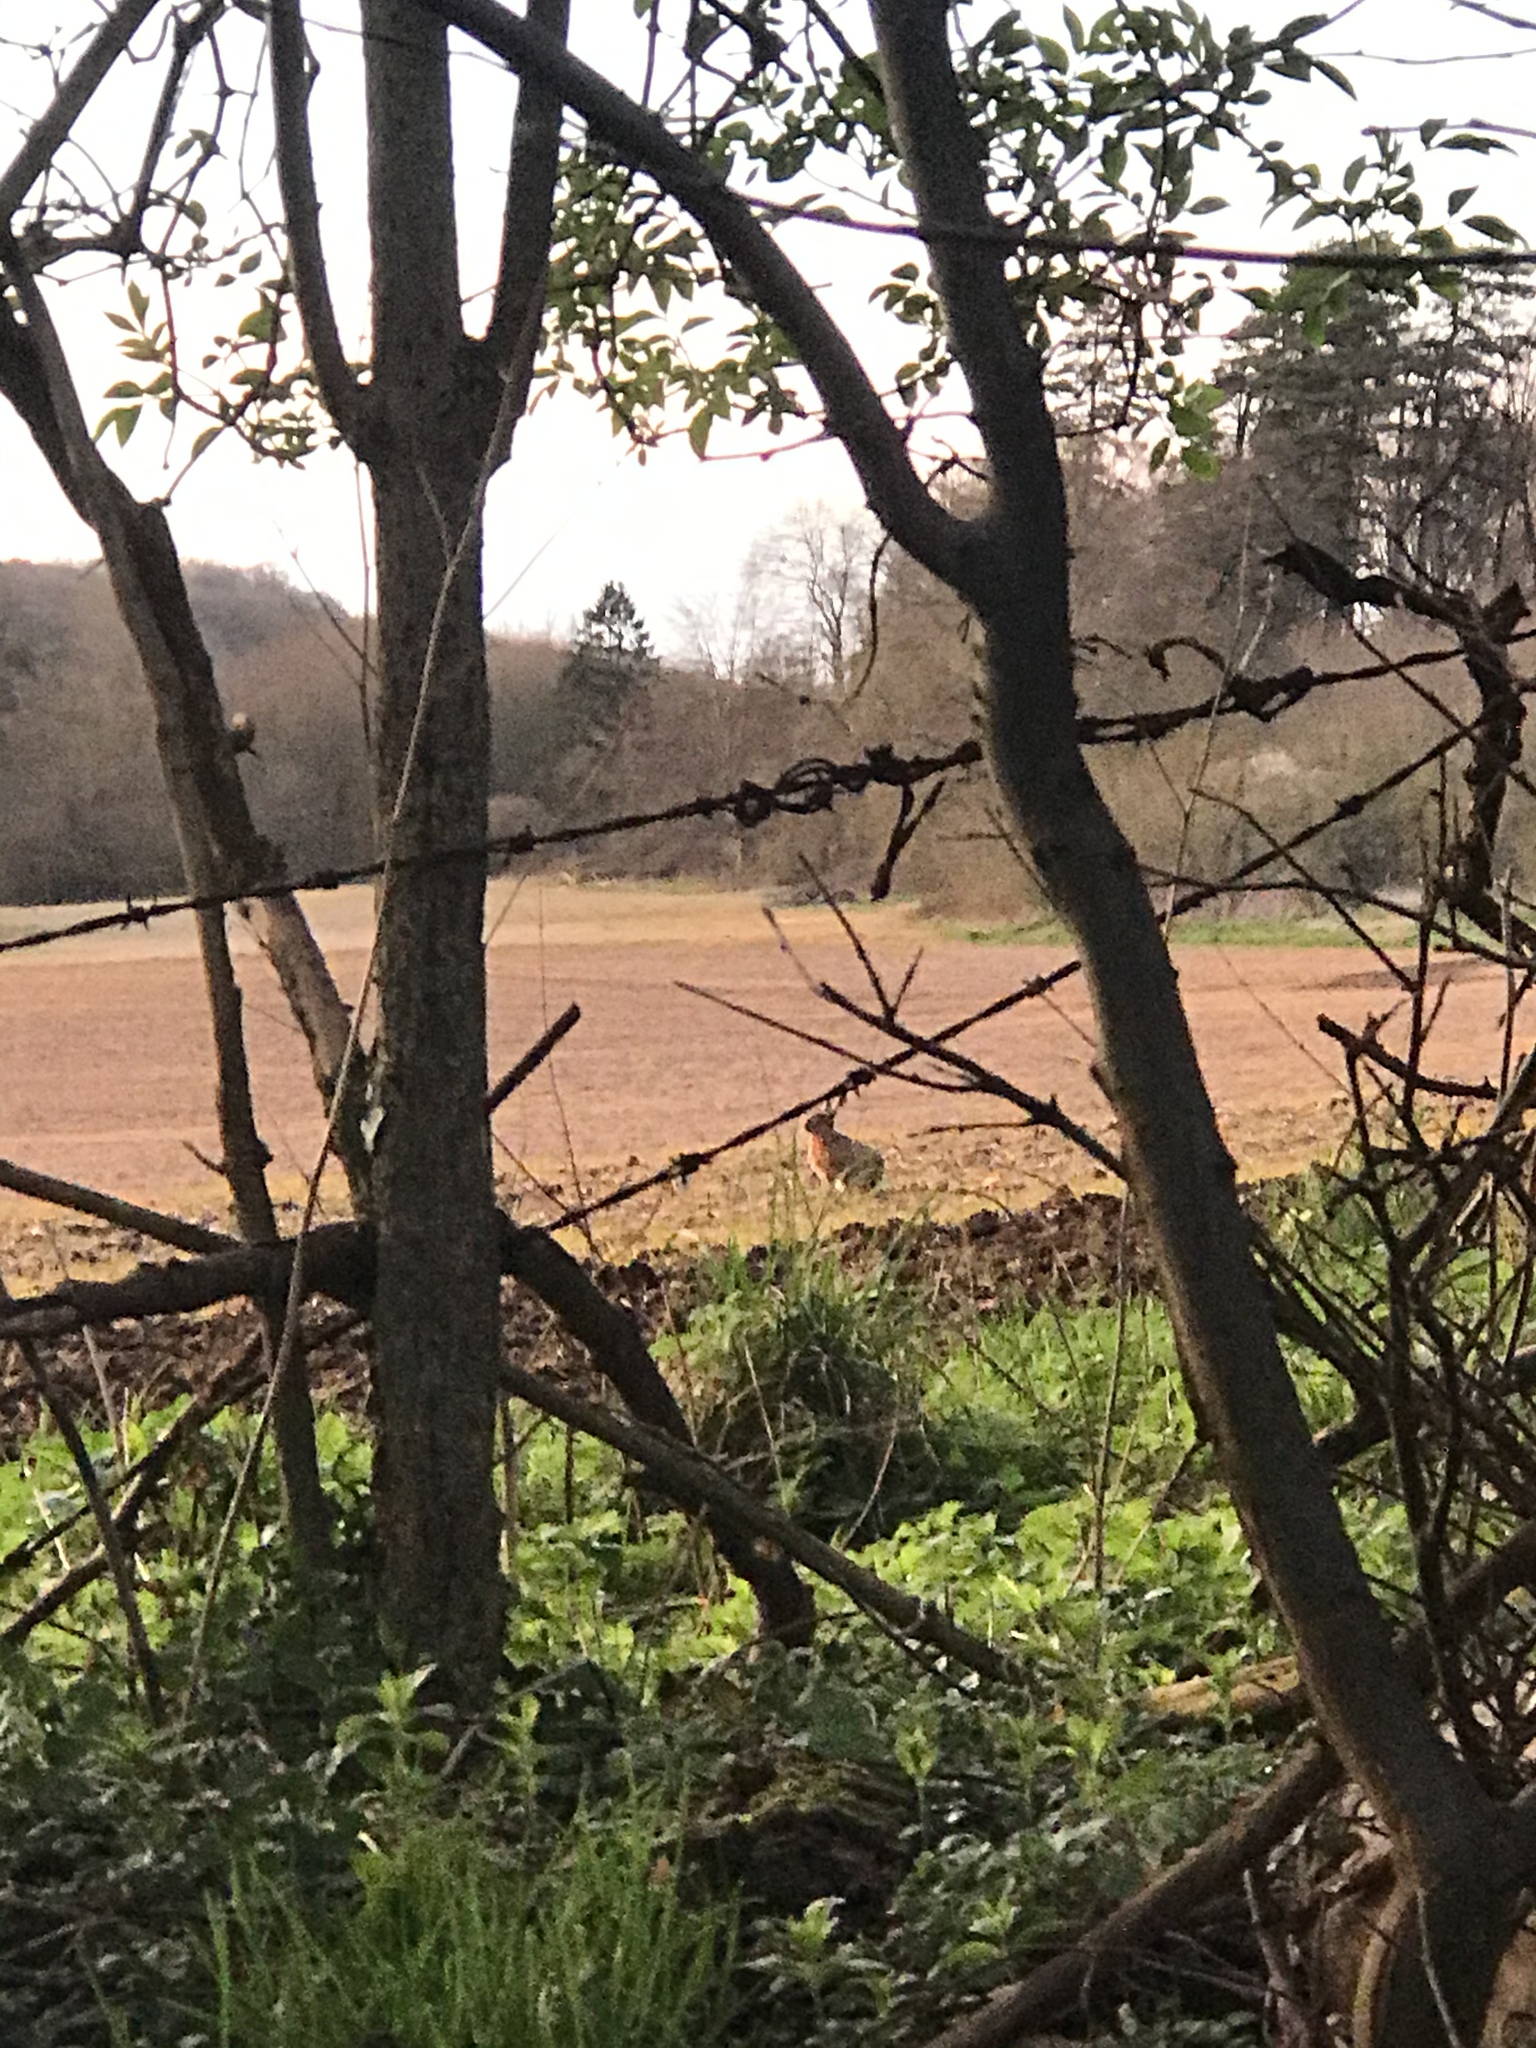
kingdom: Animalia
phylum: Chordata
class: Mammalia
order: Lagomorpha
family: Leporidae
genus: Lepus
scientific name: Lepus europaeus
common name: European hare
